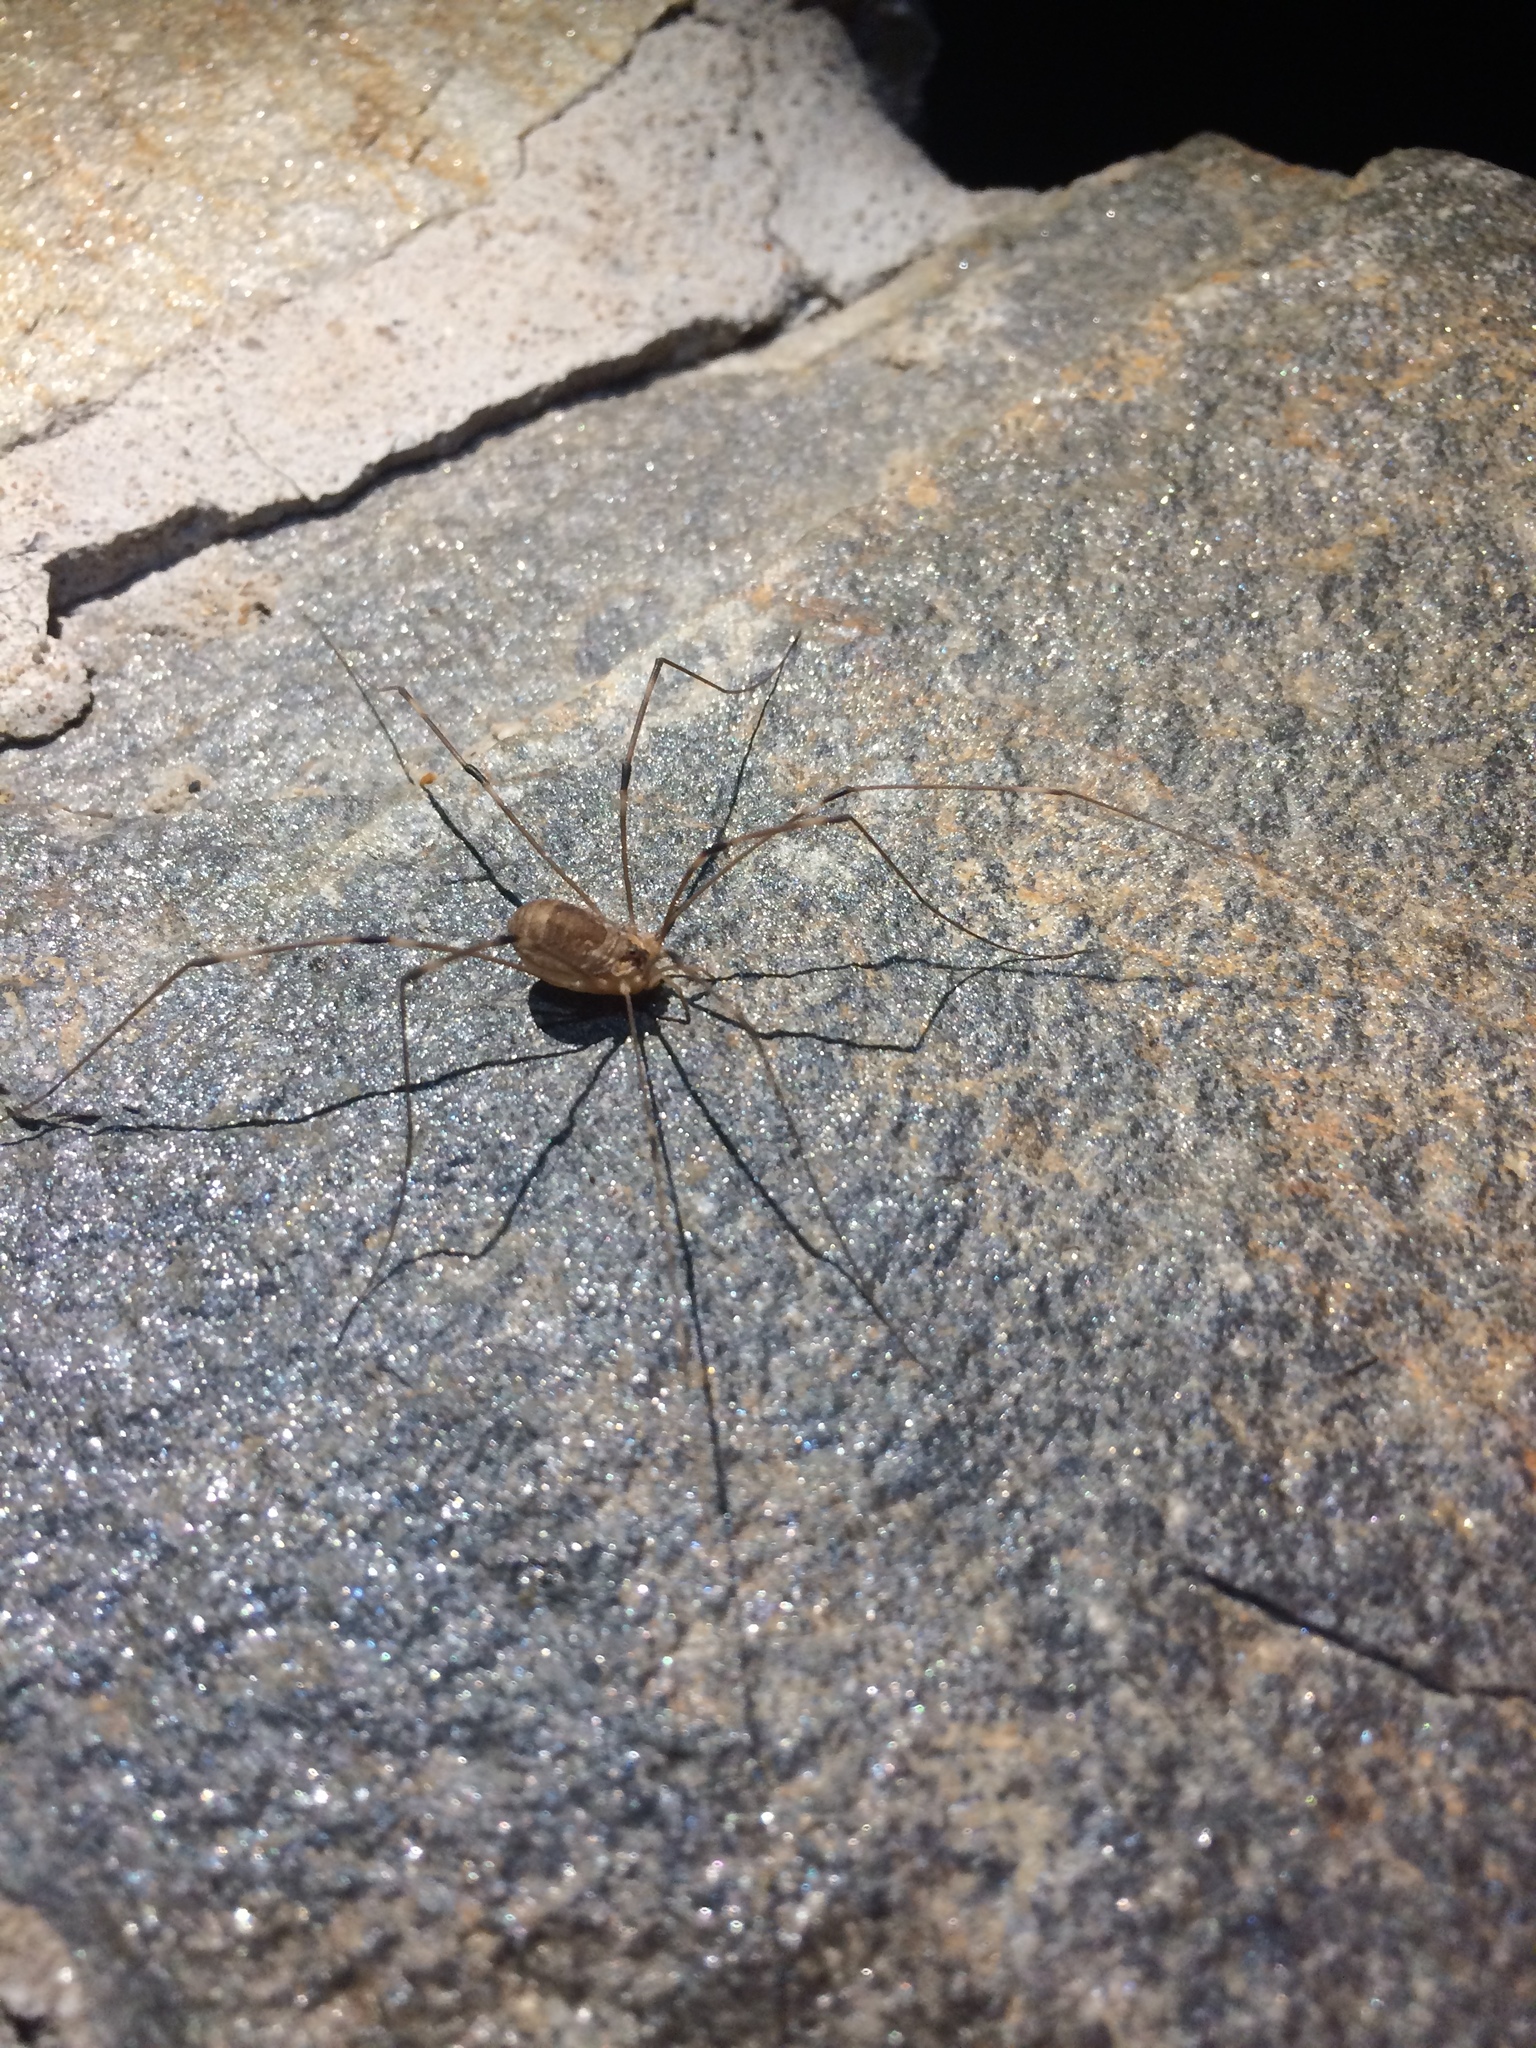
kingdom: Animalia
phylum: Arthropoda
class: Arachnida
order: Opiliones
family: Sclerosomatidae
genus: Leiobunum
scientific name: Leiobunum townsendi
